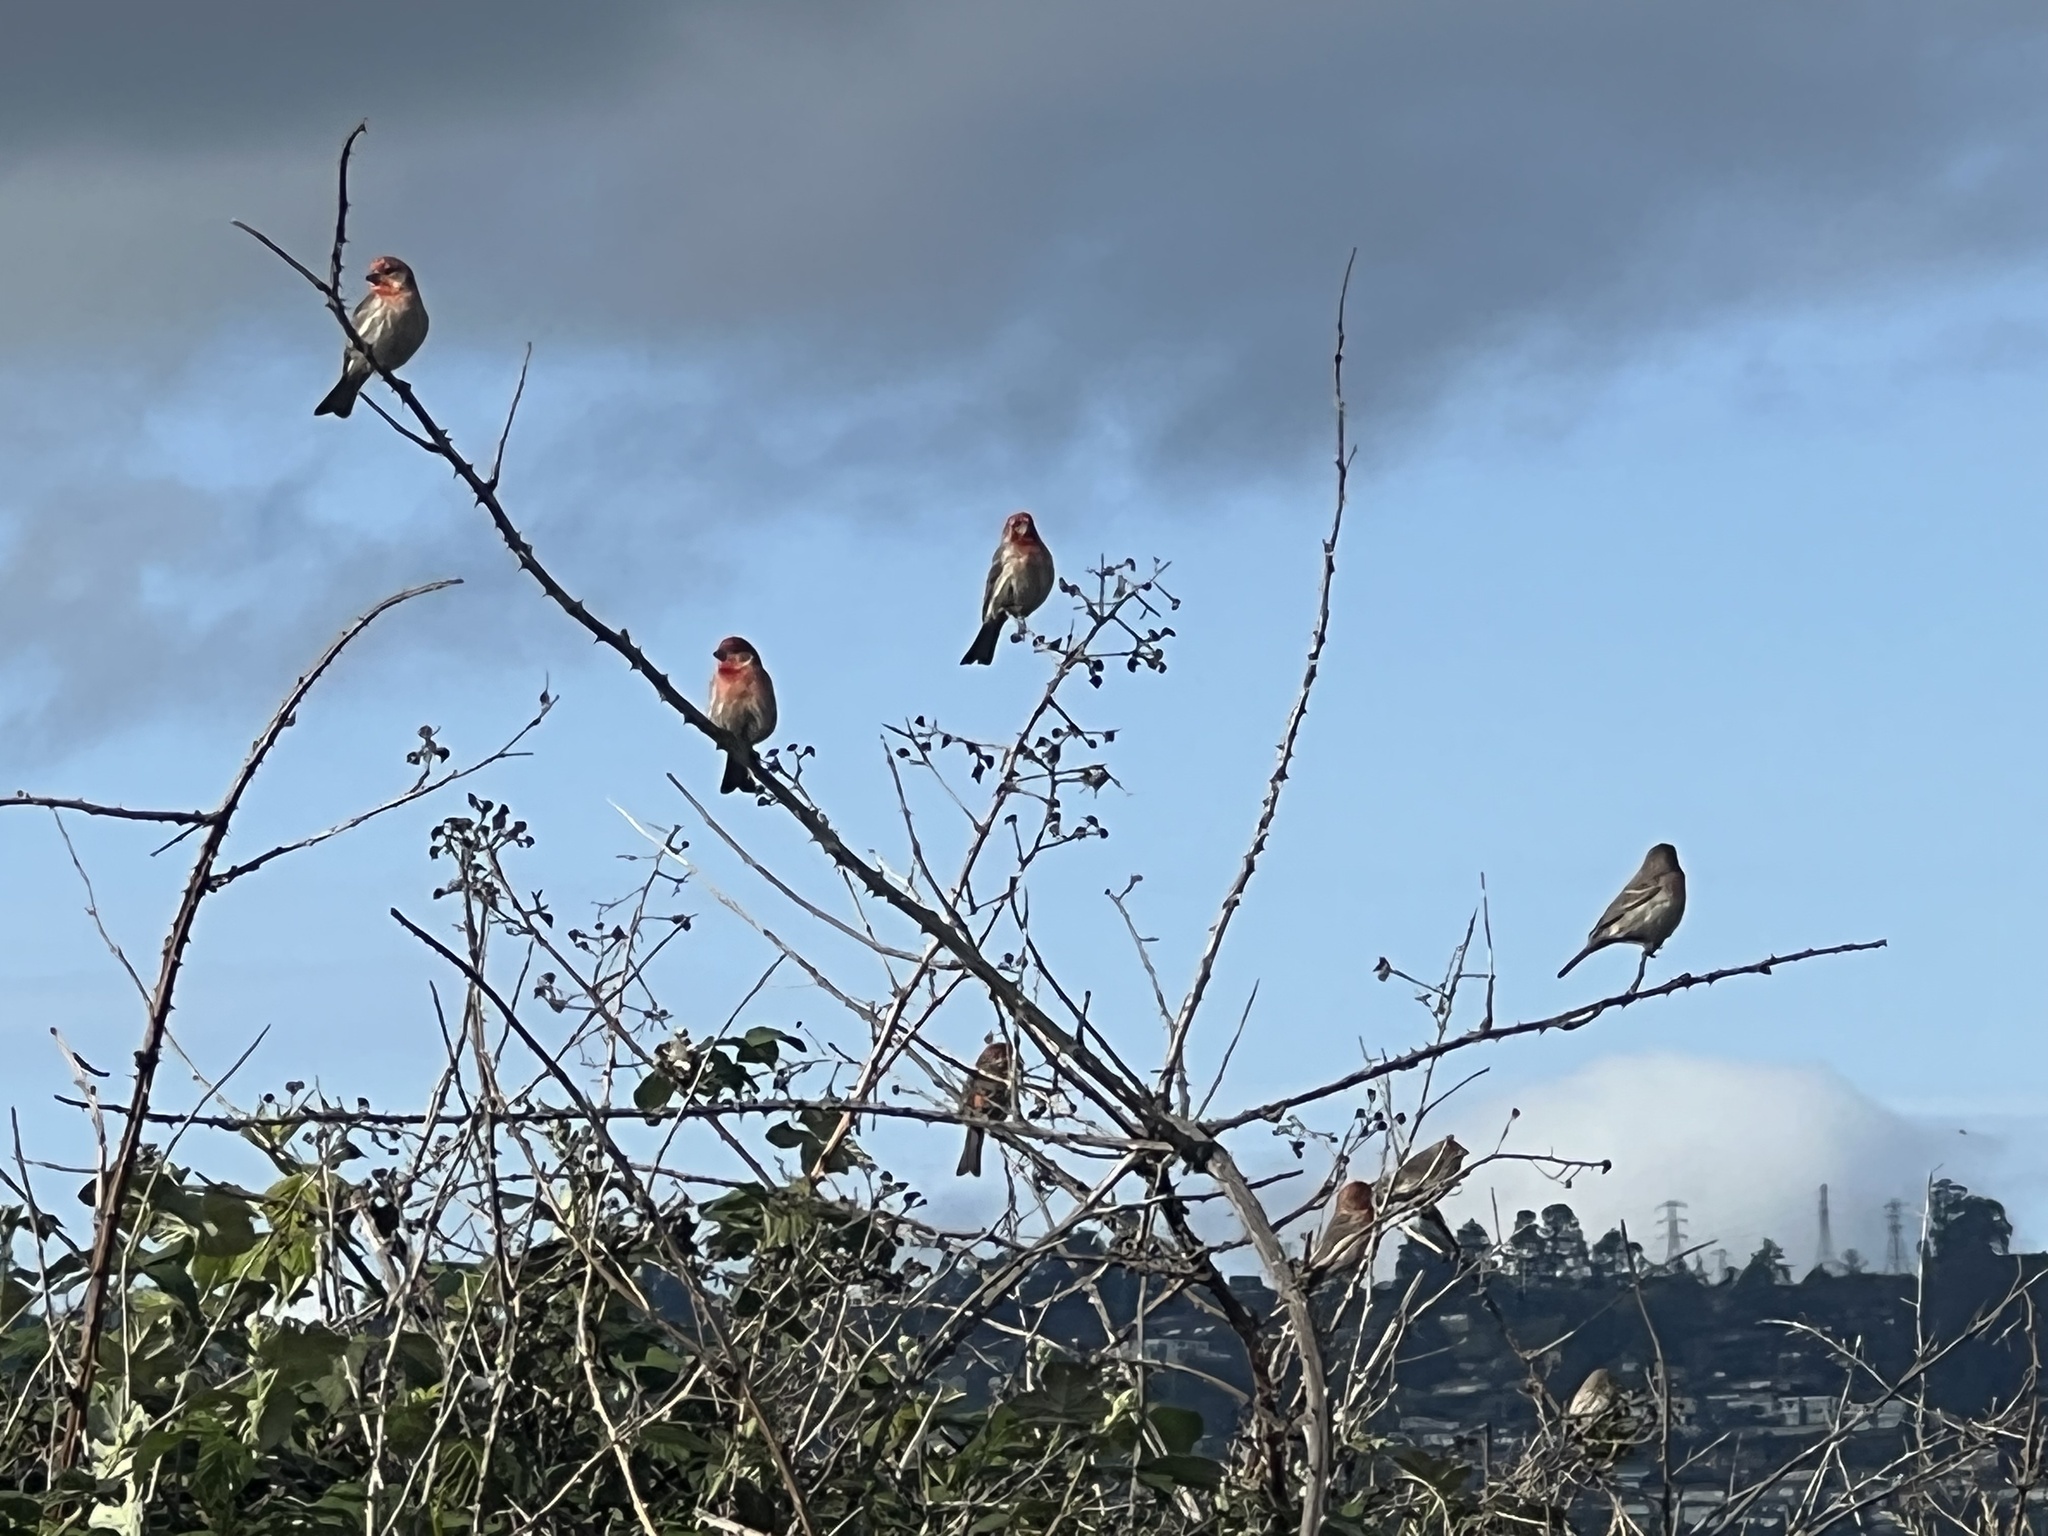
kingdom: Animalia
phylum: Chordata
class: Aves
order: Passeriformes
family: Fringillidae
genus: Haemorhous
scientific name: Haemorhous mexicanus
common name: House finch
